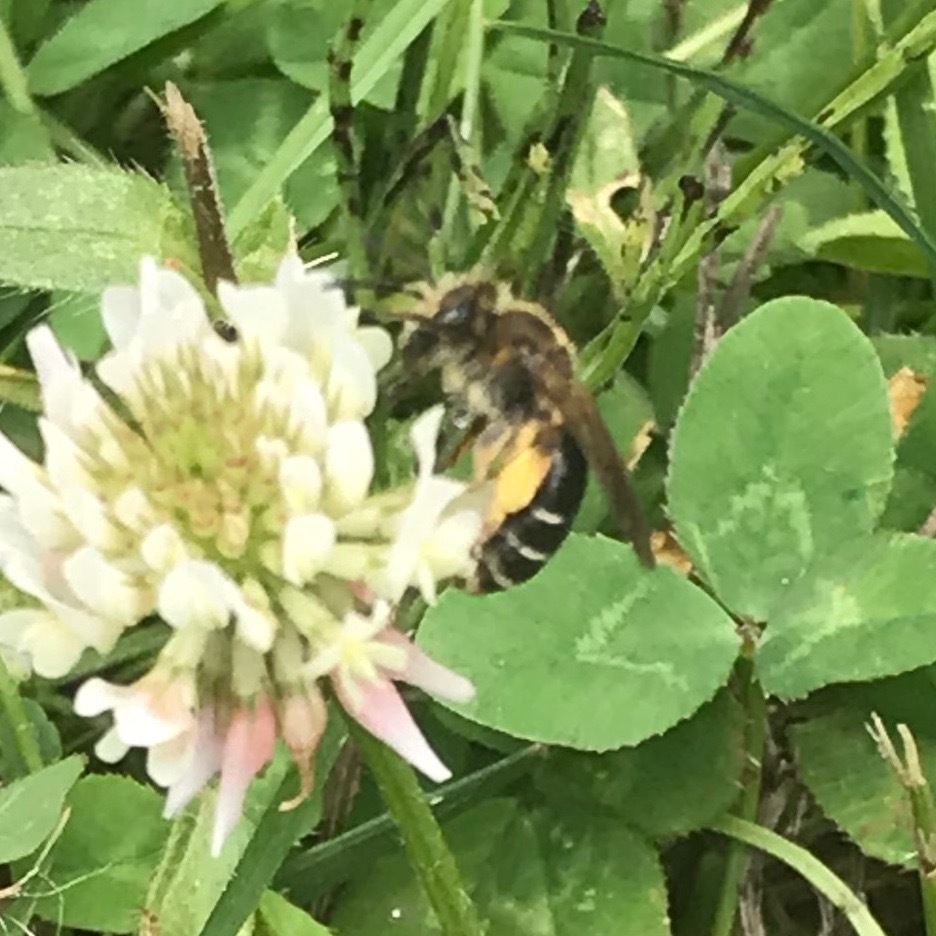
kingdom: Animalia
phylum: Arthropoda
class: Insecta
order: Hymenoptera
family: Andrenidae
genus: Andrena
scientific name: Andrena wilkella
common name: Wilke's mining bee
